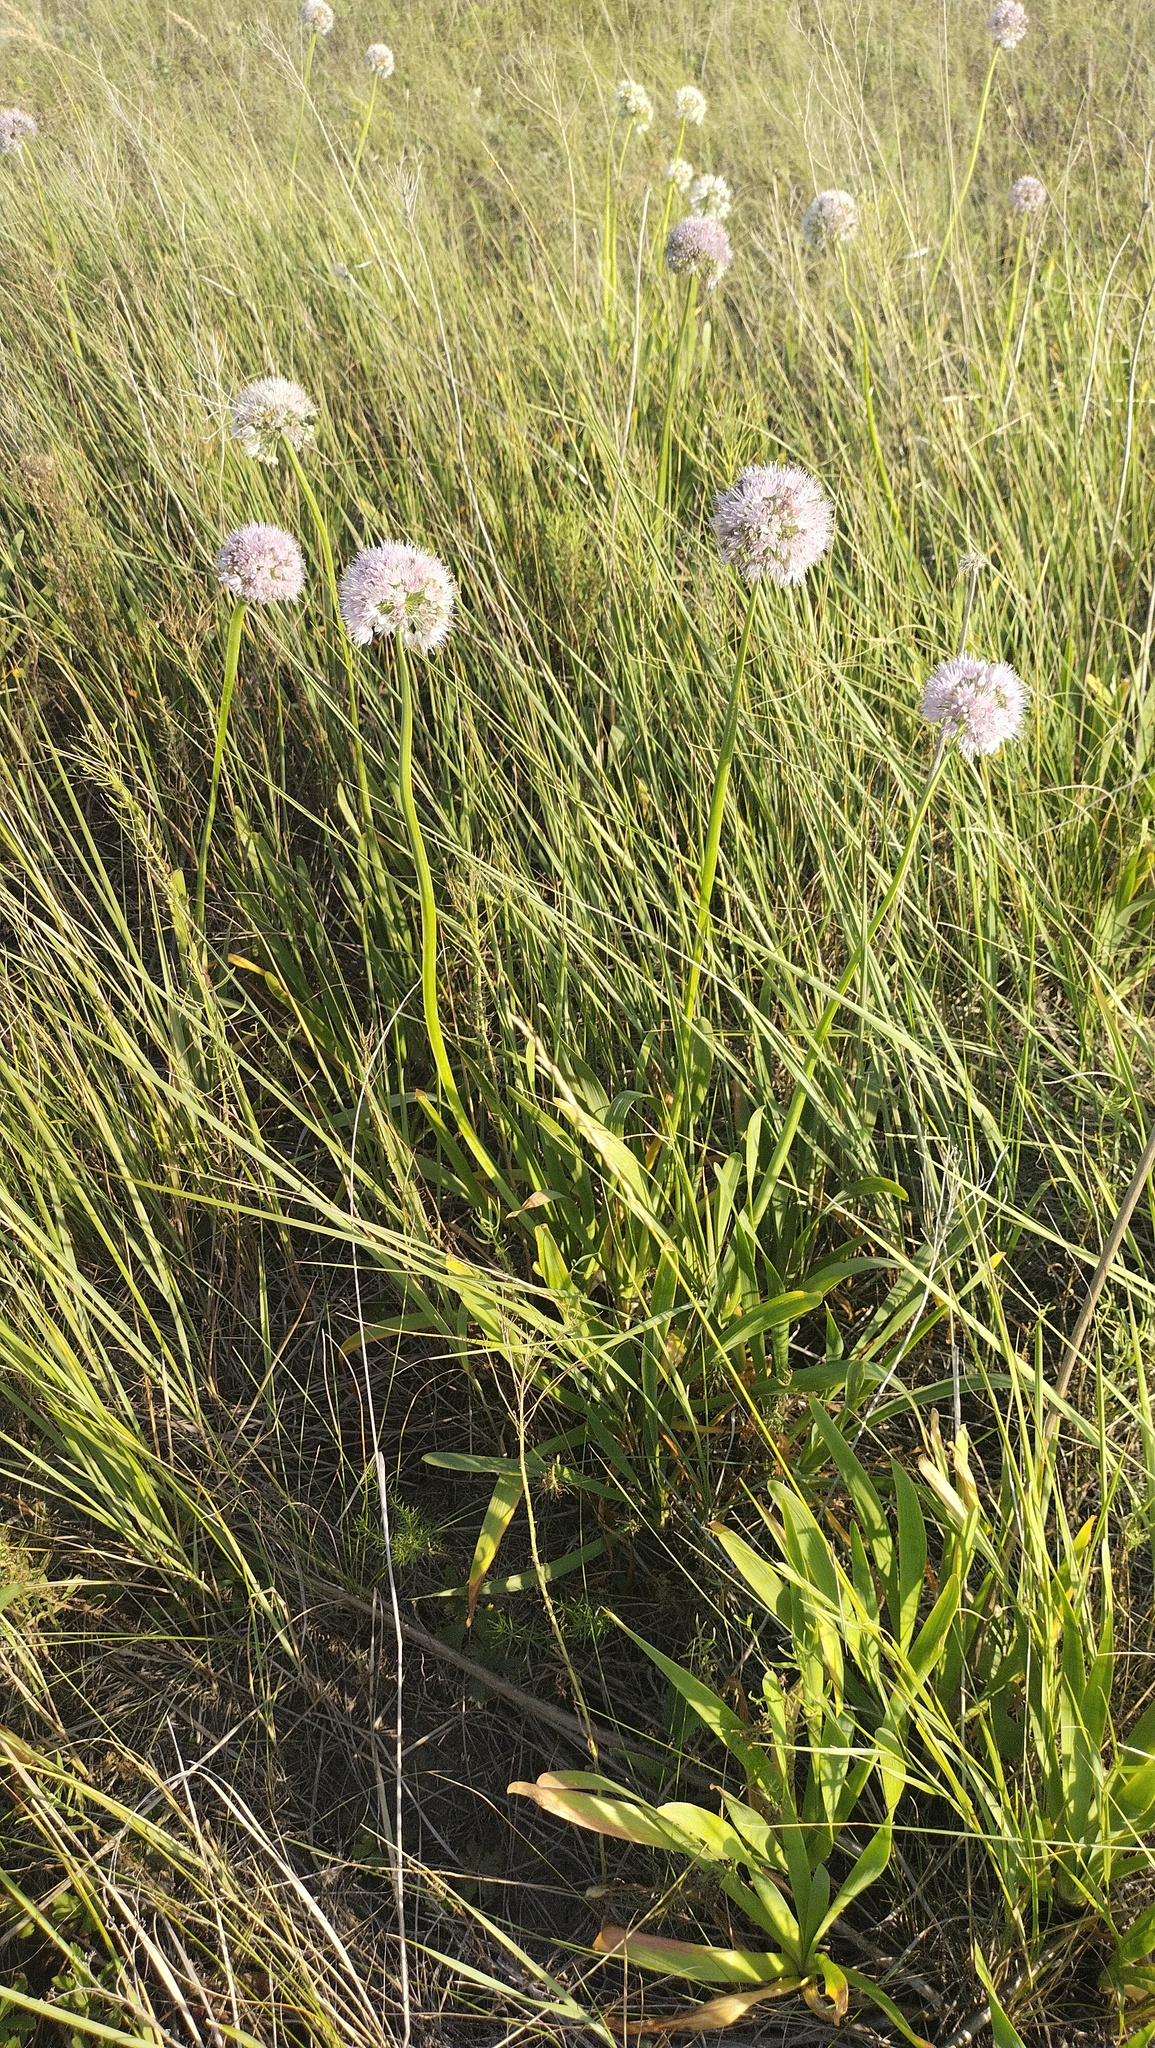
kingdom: Plantae
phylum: Tracheophyta
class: Liliopsida
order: Asparagales
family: Amaryllidaceae
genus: Allium
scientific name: Allium nutans
